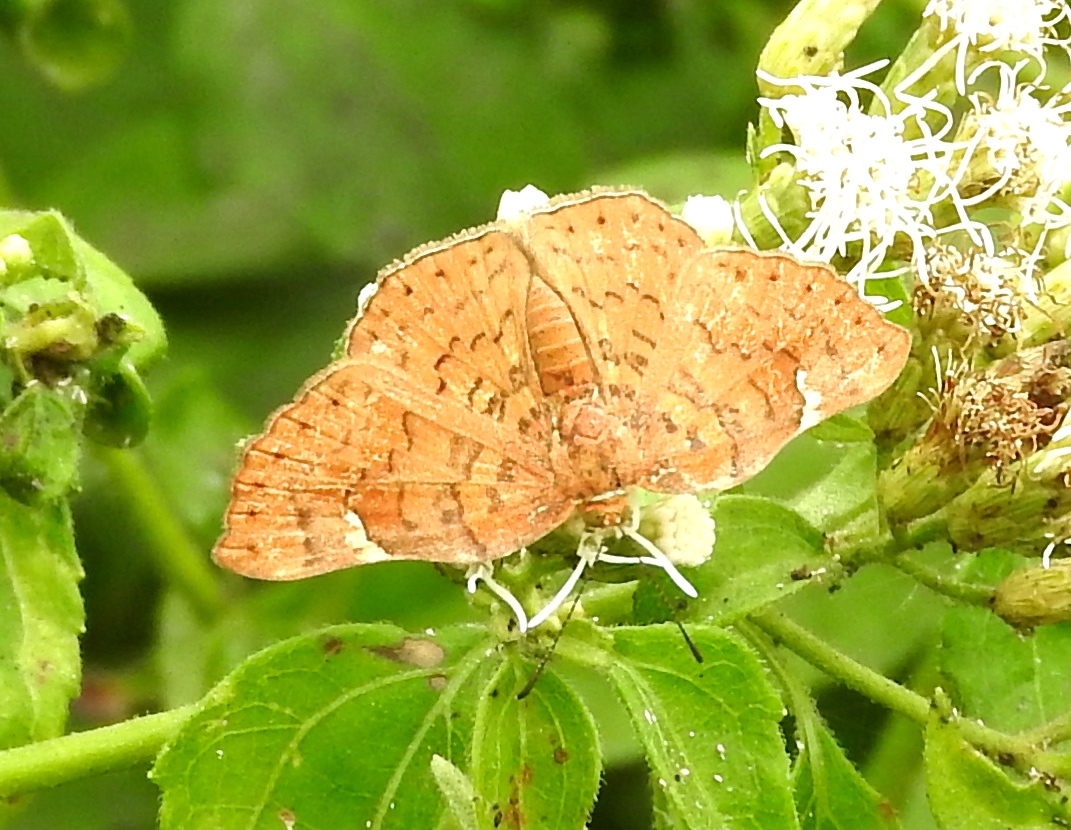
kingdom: Animalia
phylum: Arthropoda
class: Insecta
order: Lepidoptera
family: Riodinidae
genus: Curvie
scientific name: Curvie emesia
